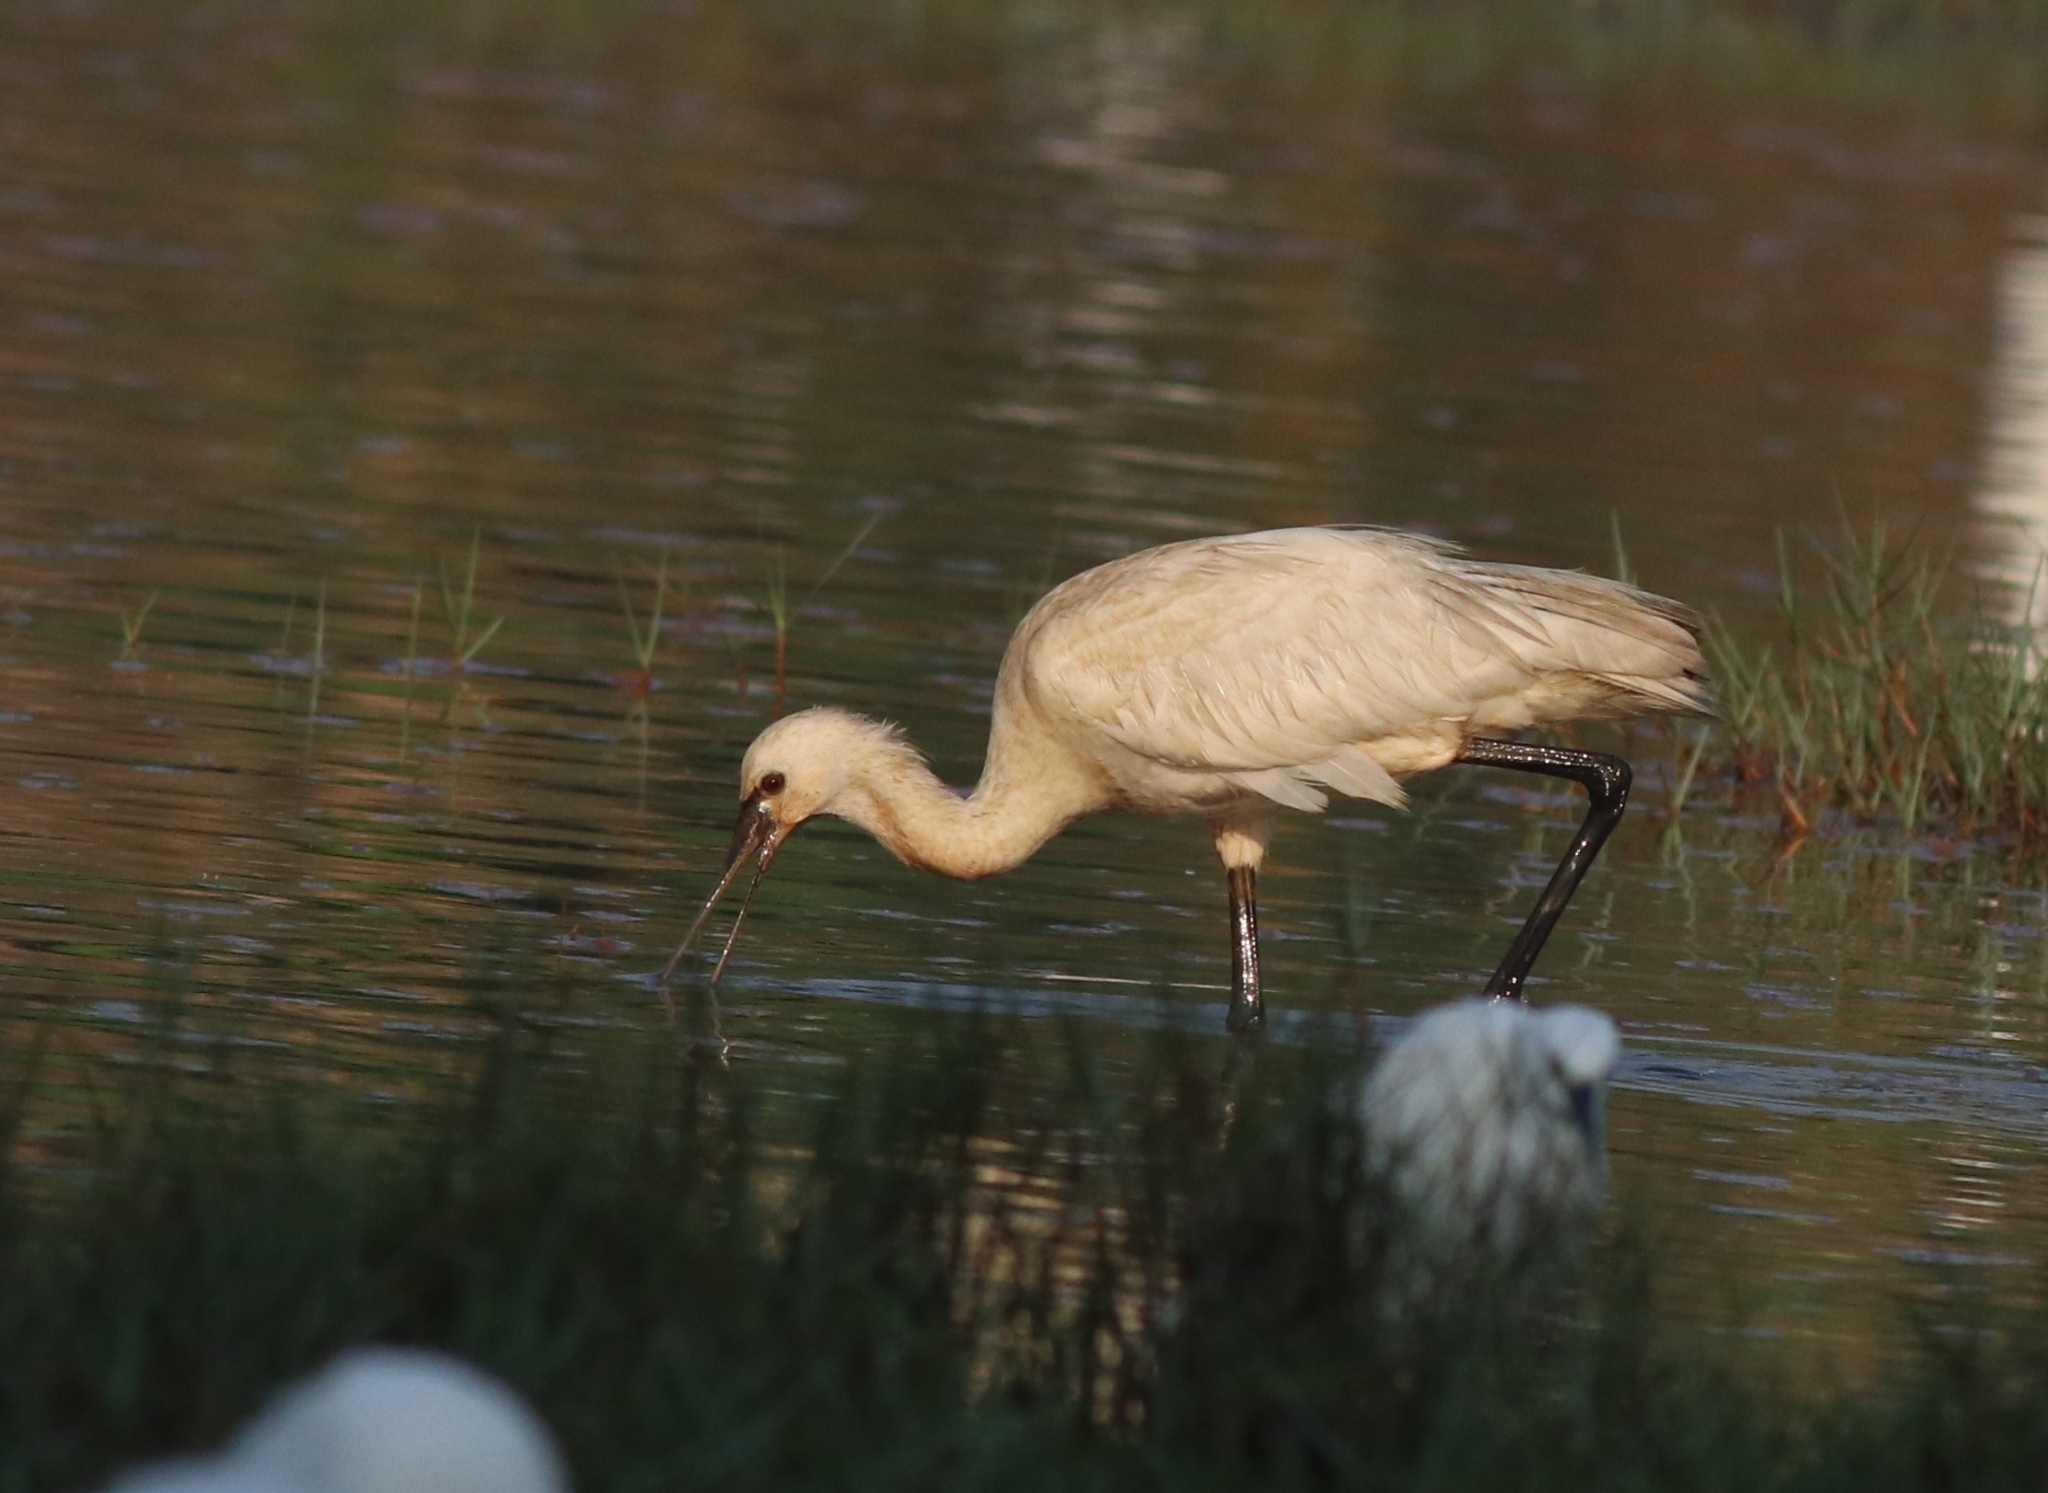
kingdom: Animalia
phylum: Chordata
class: Aves
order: Pelecaniformes
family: Threskiornithidae
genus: Platalea
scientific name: Platalea leucorodia
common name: Eurasian spoonbill
